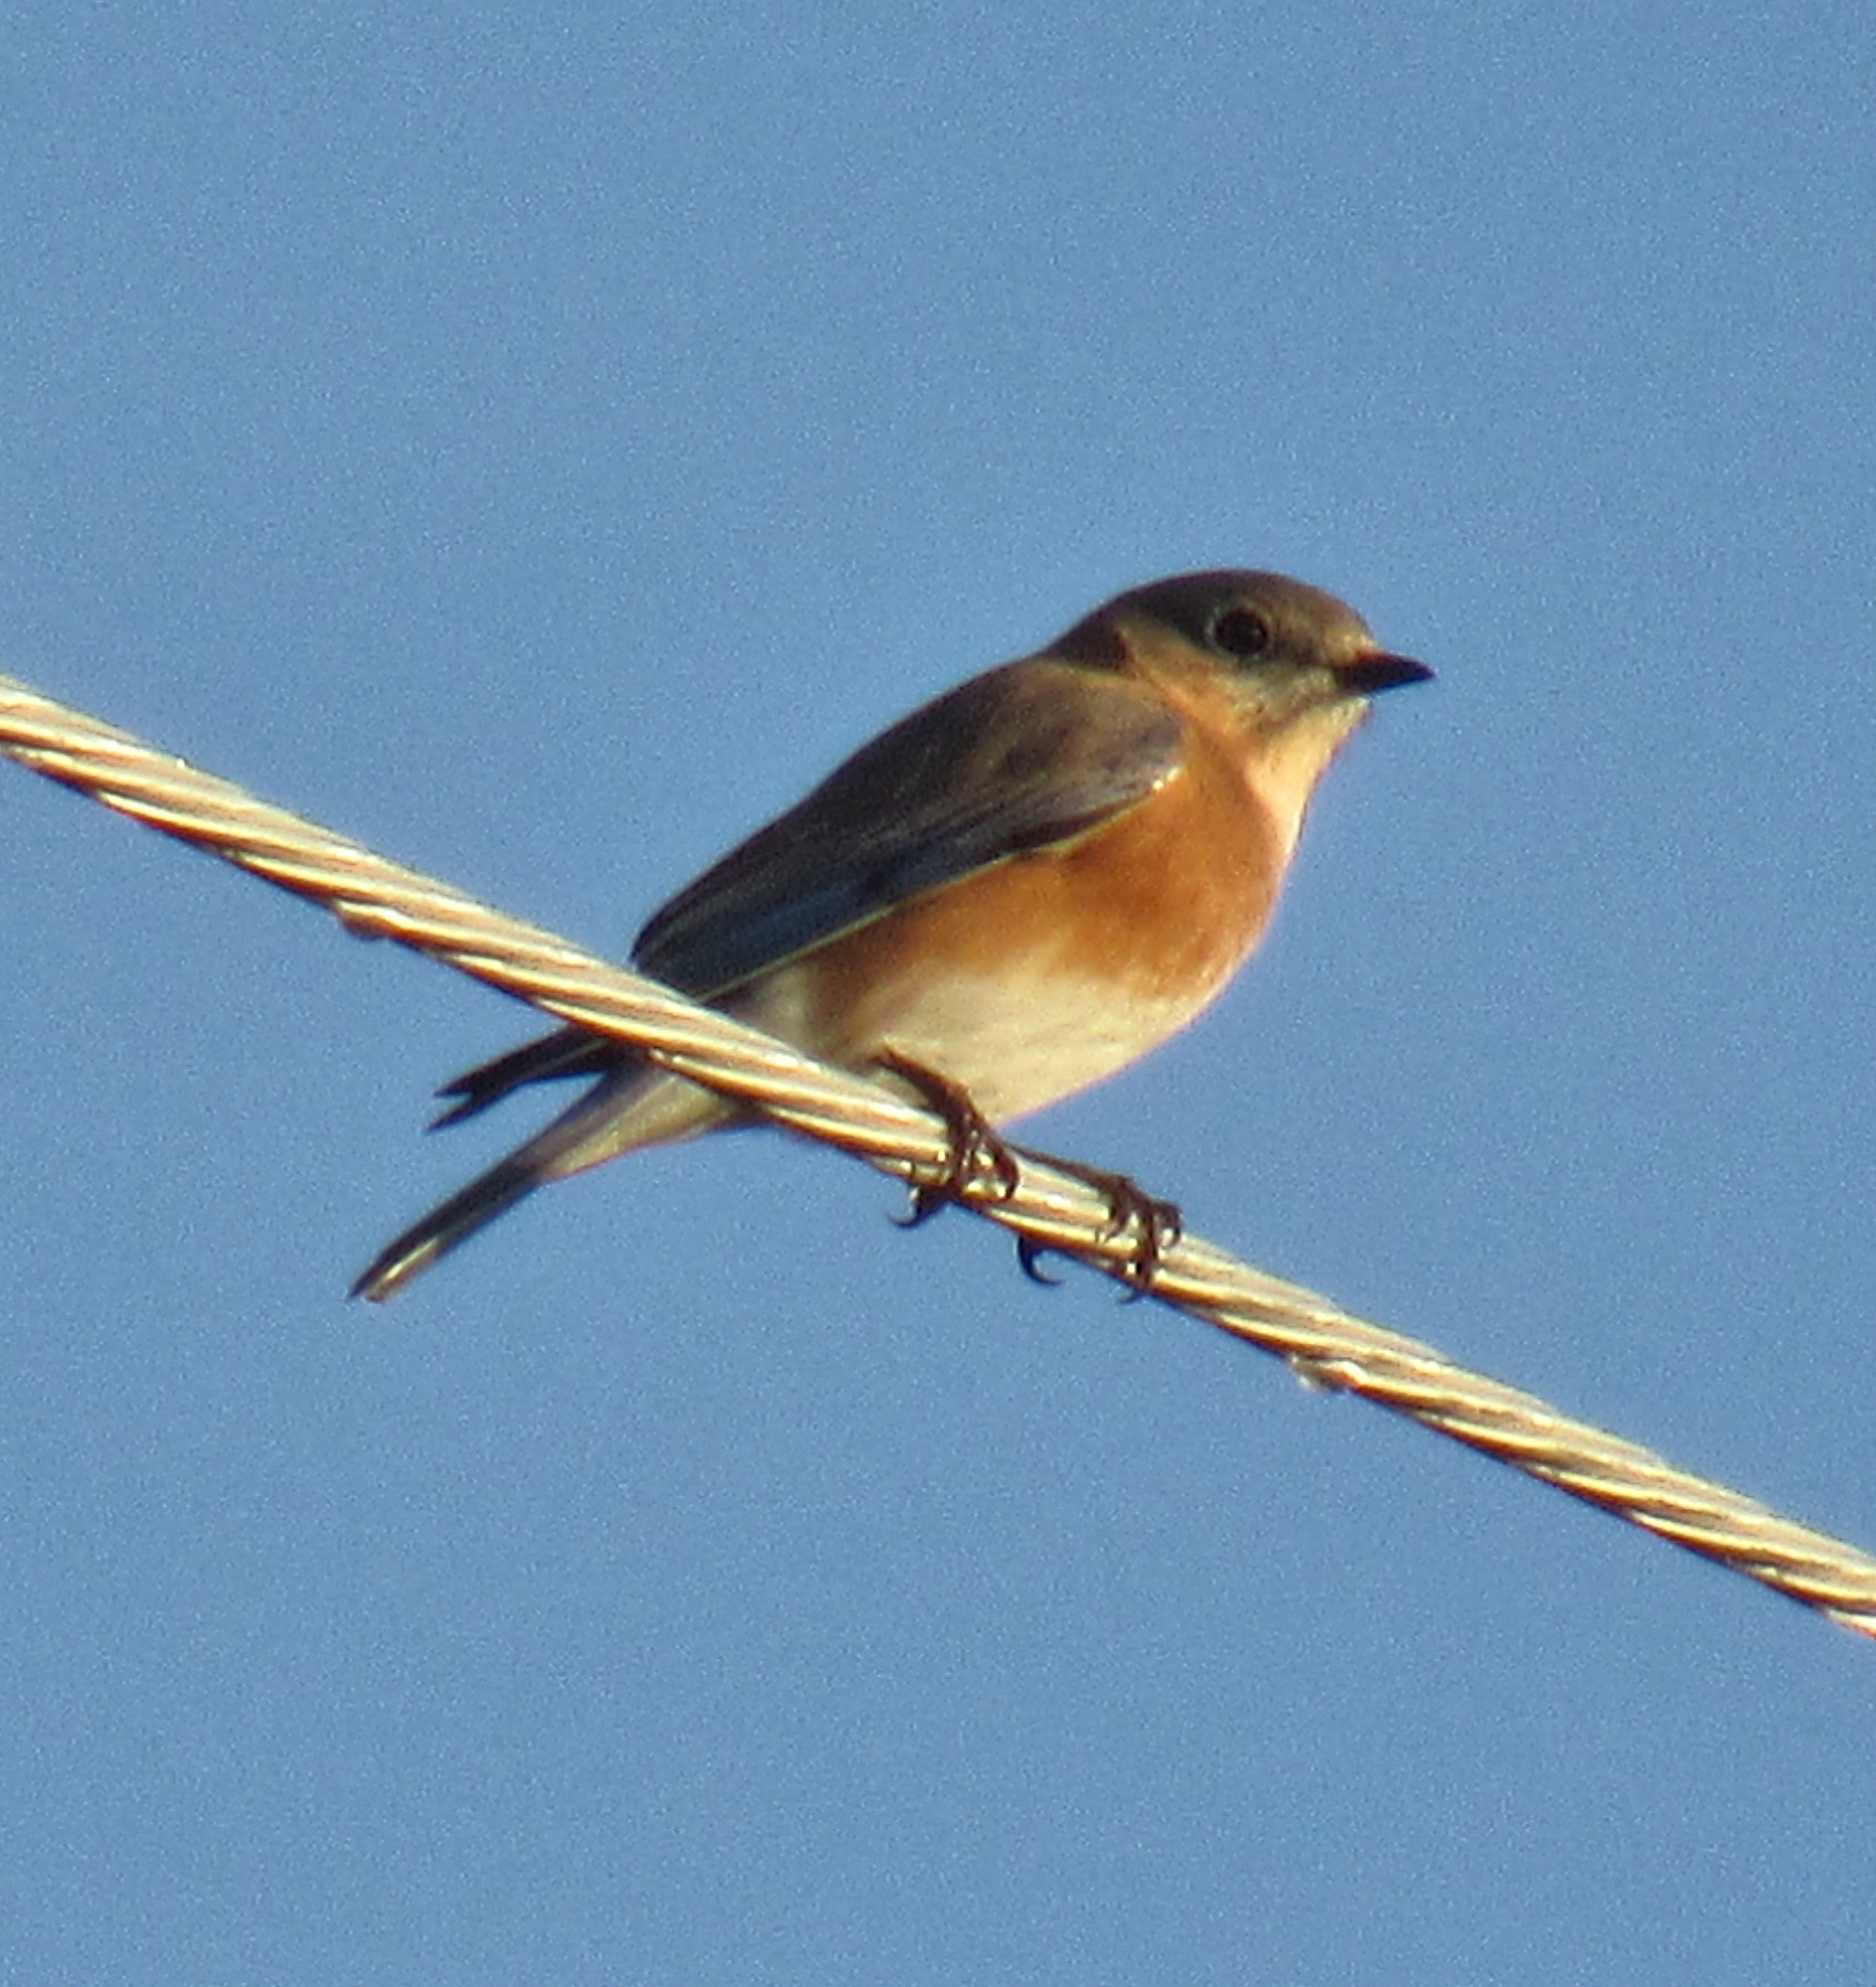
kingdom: Animalia
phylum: Chordata
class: Aves
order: Passeriformes
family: Turdidae
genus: Sialia
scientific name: Sialia sialis
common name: Eastern bluebird
